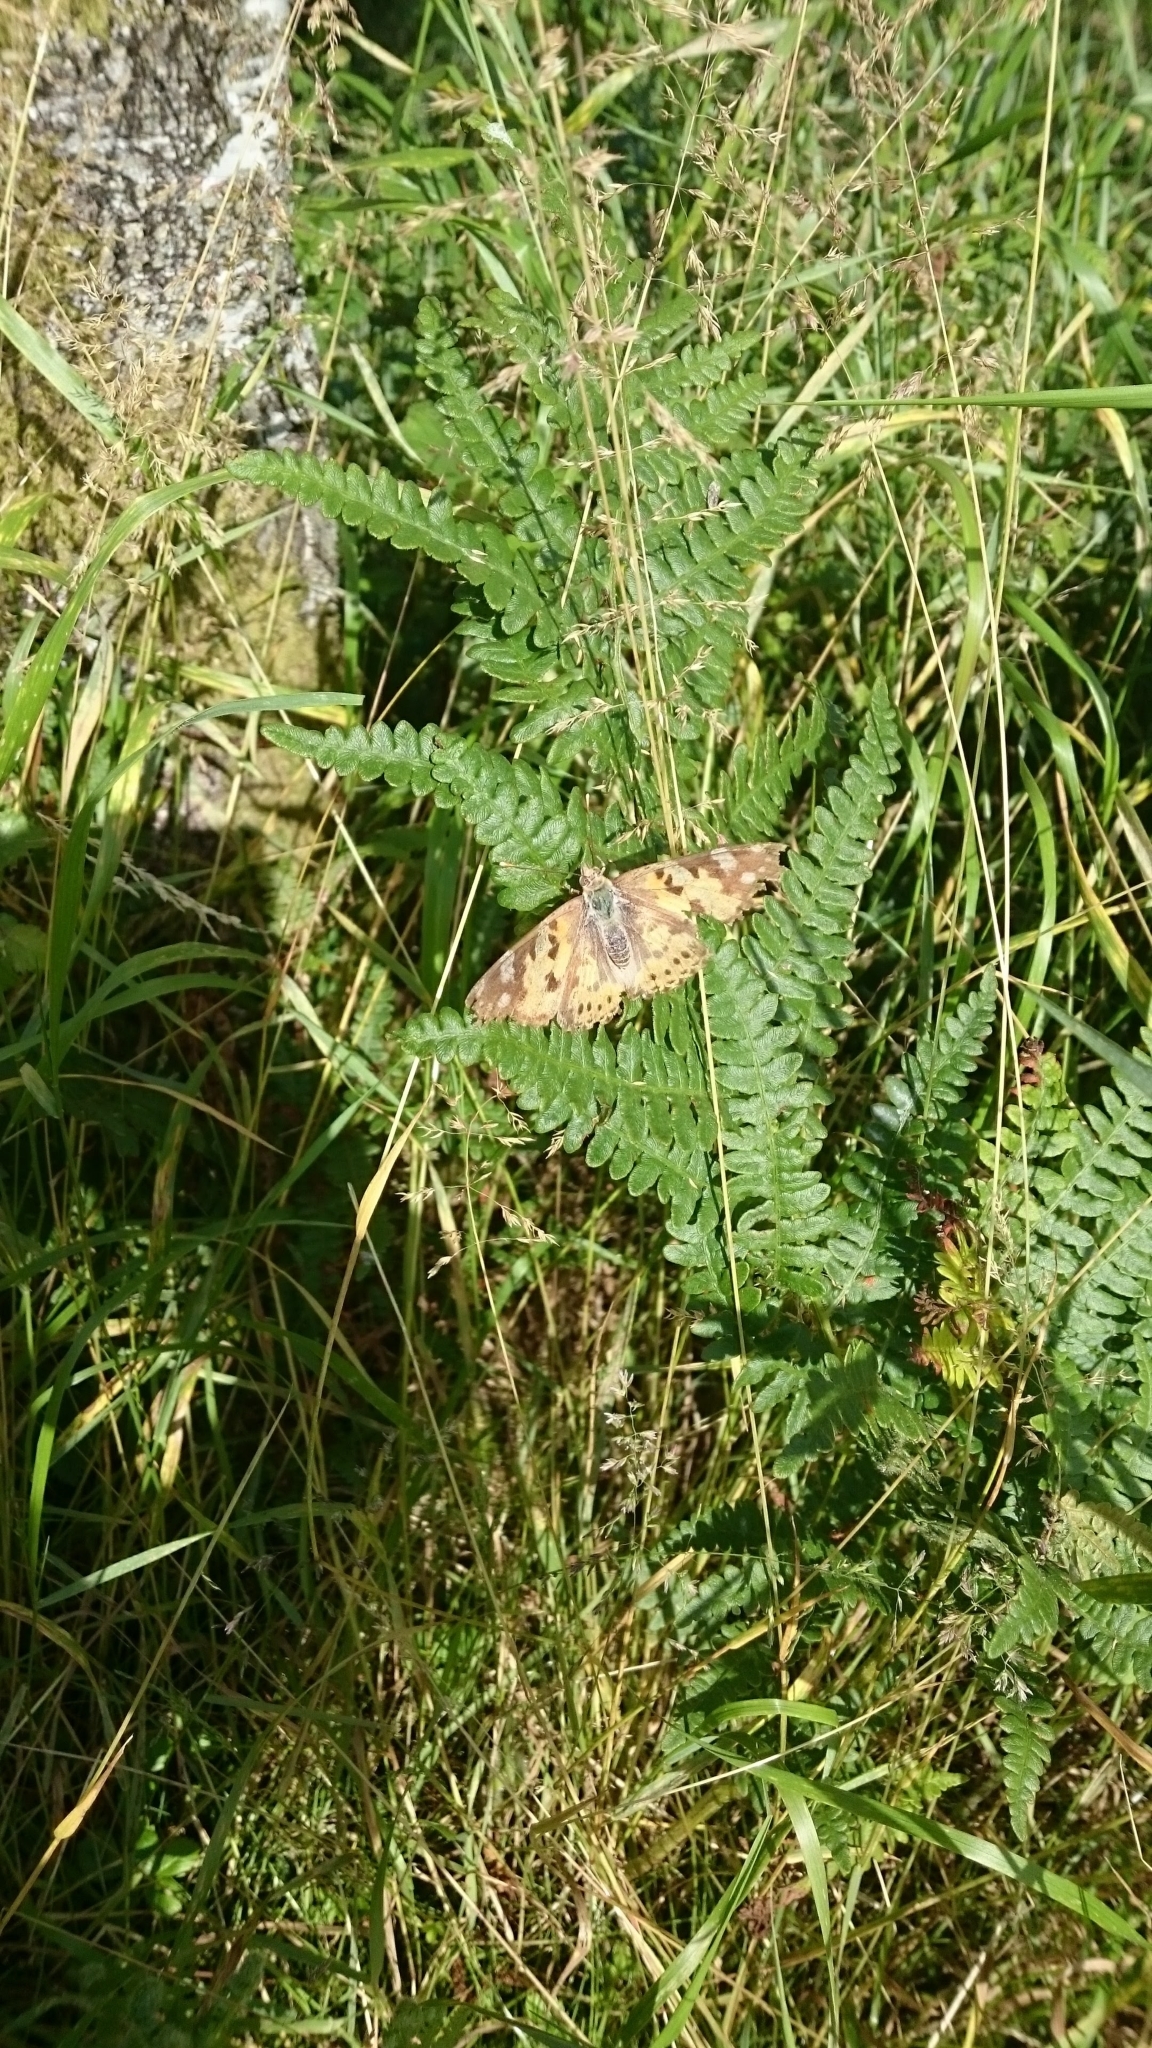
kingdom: Animalia
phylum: Arthropoda
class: Insecta
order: Lepidoptera
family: Nymphalidae
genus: Vanessa
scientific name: Vanessa cardui
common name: Painted lady
